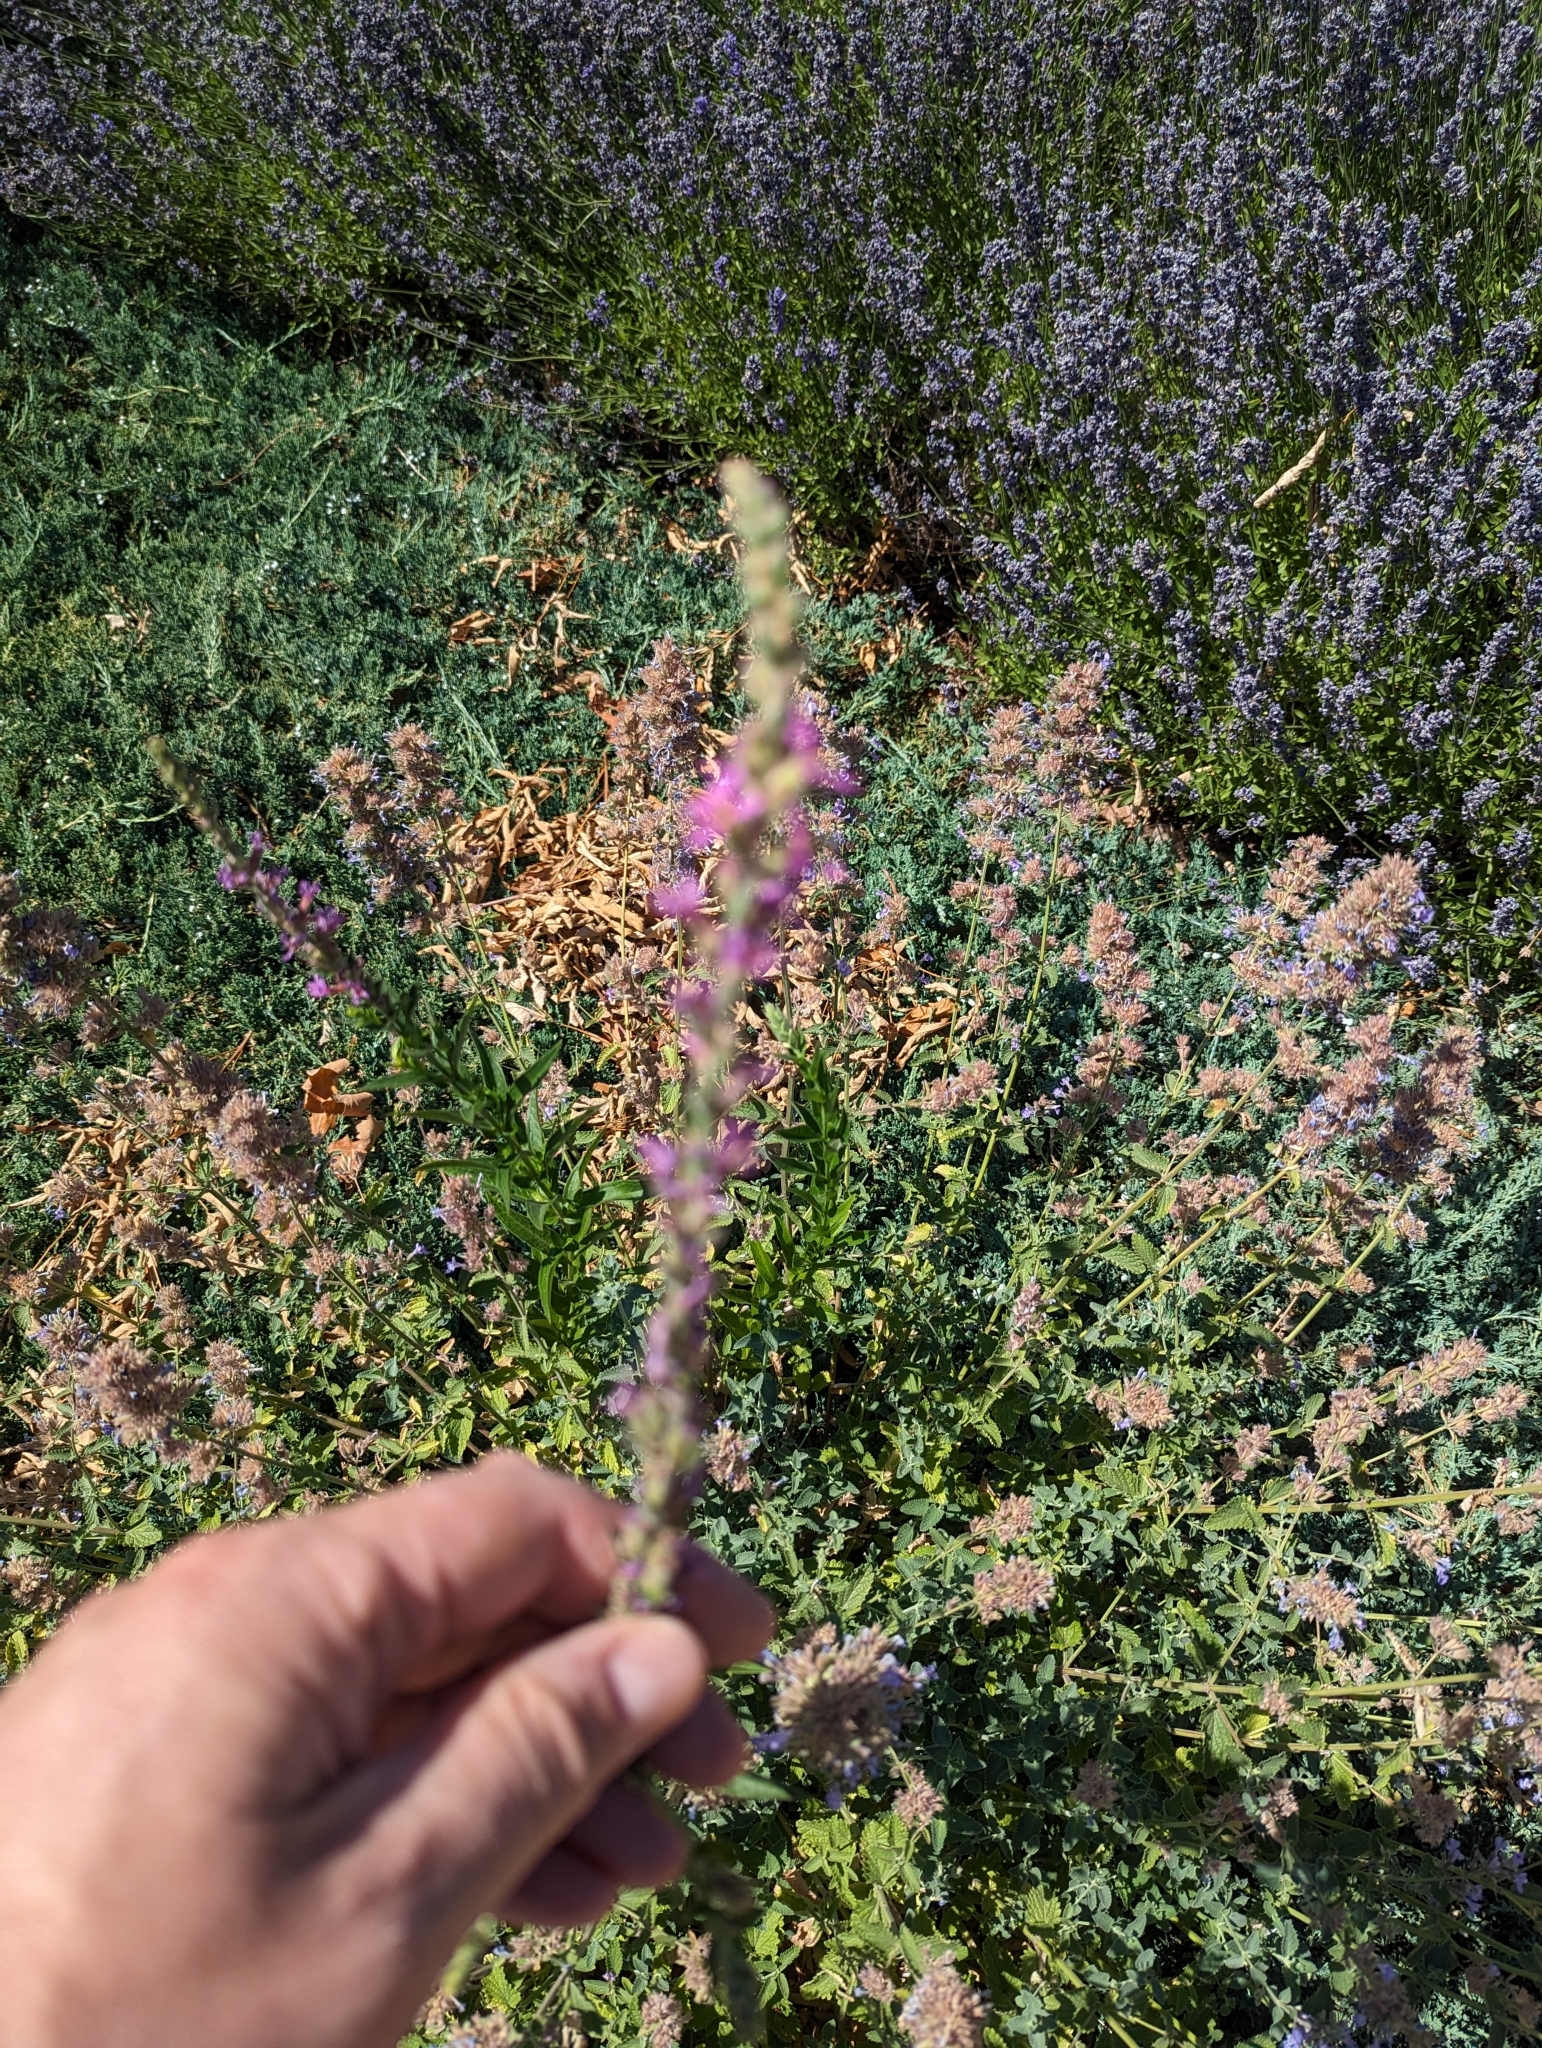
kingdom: Plantae
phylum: Tracheophyta
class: Magnoliopsida
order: Myrtales
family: Lythraceae
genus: Lythrum
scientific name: Lythrum salicaria
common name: Purple loosestrife
